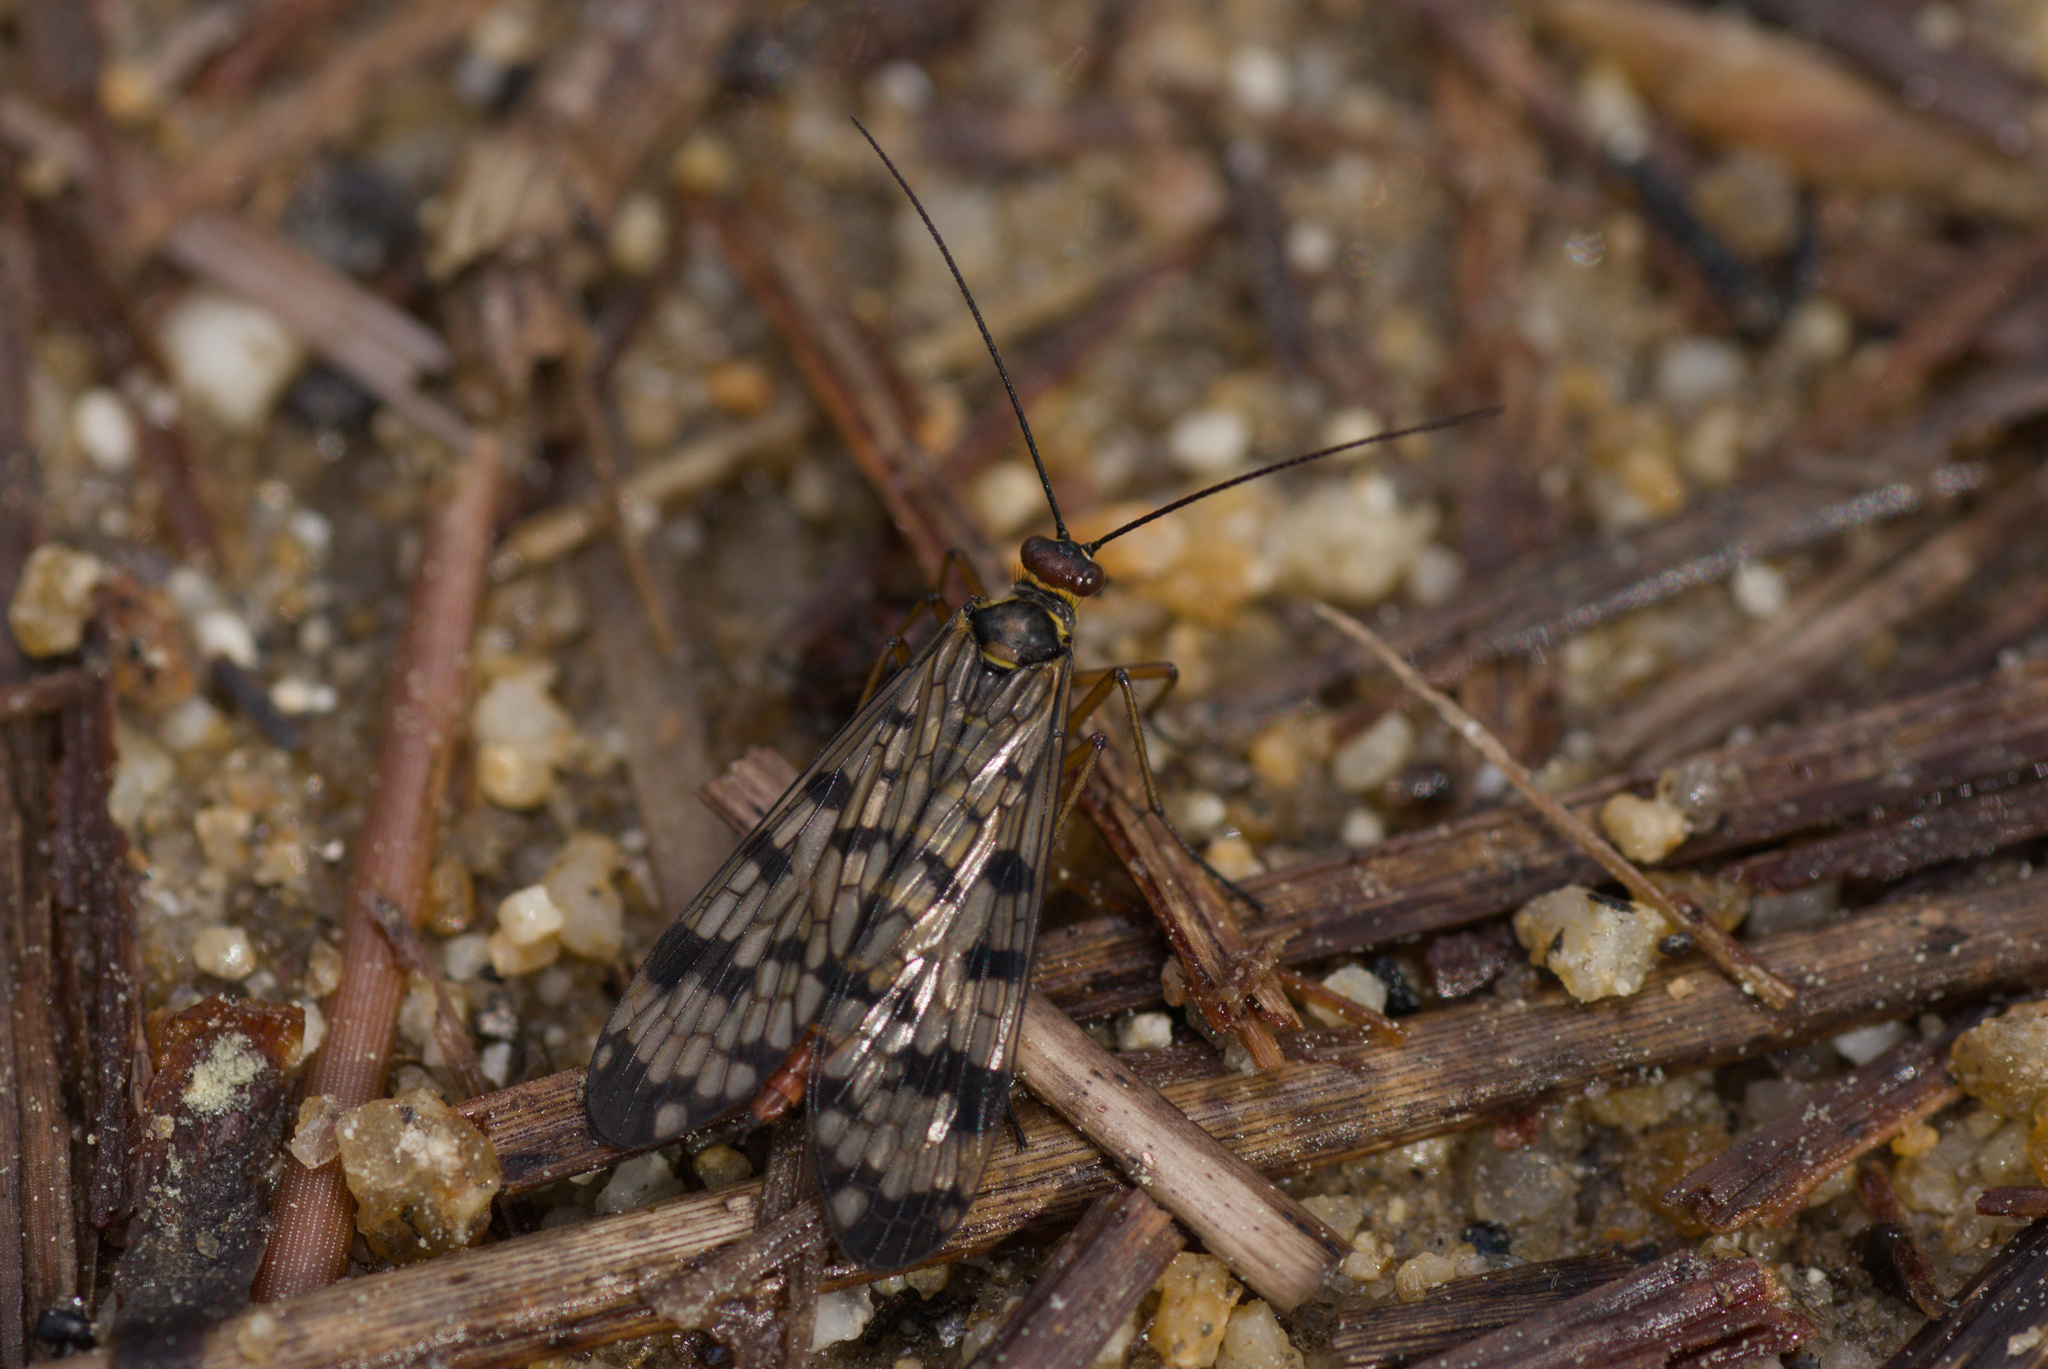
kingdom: Animalia
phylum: Arthropoda
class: Insecta
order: Mecoptera
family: Panorpidae
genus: Panorpa
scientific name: Panorpa meridionalis
